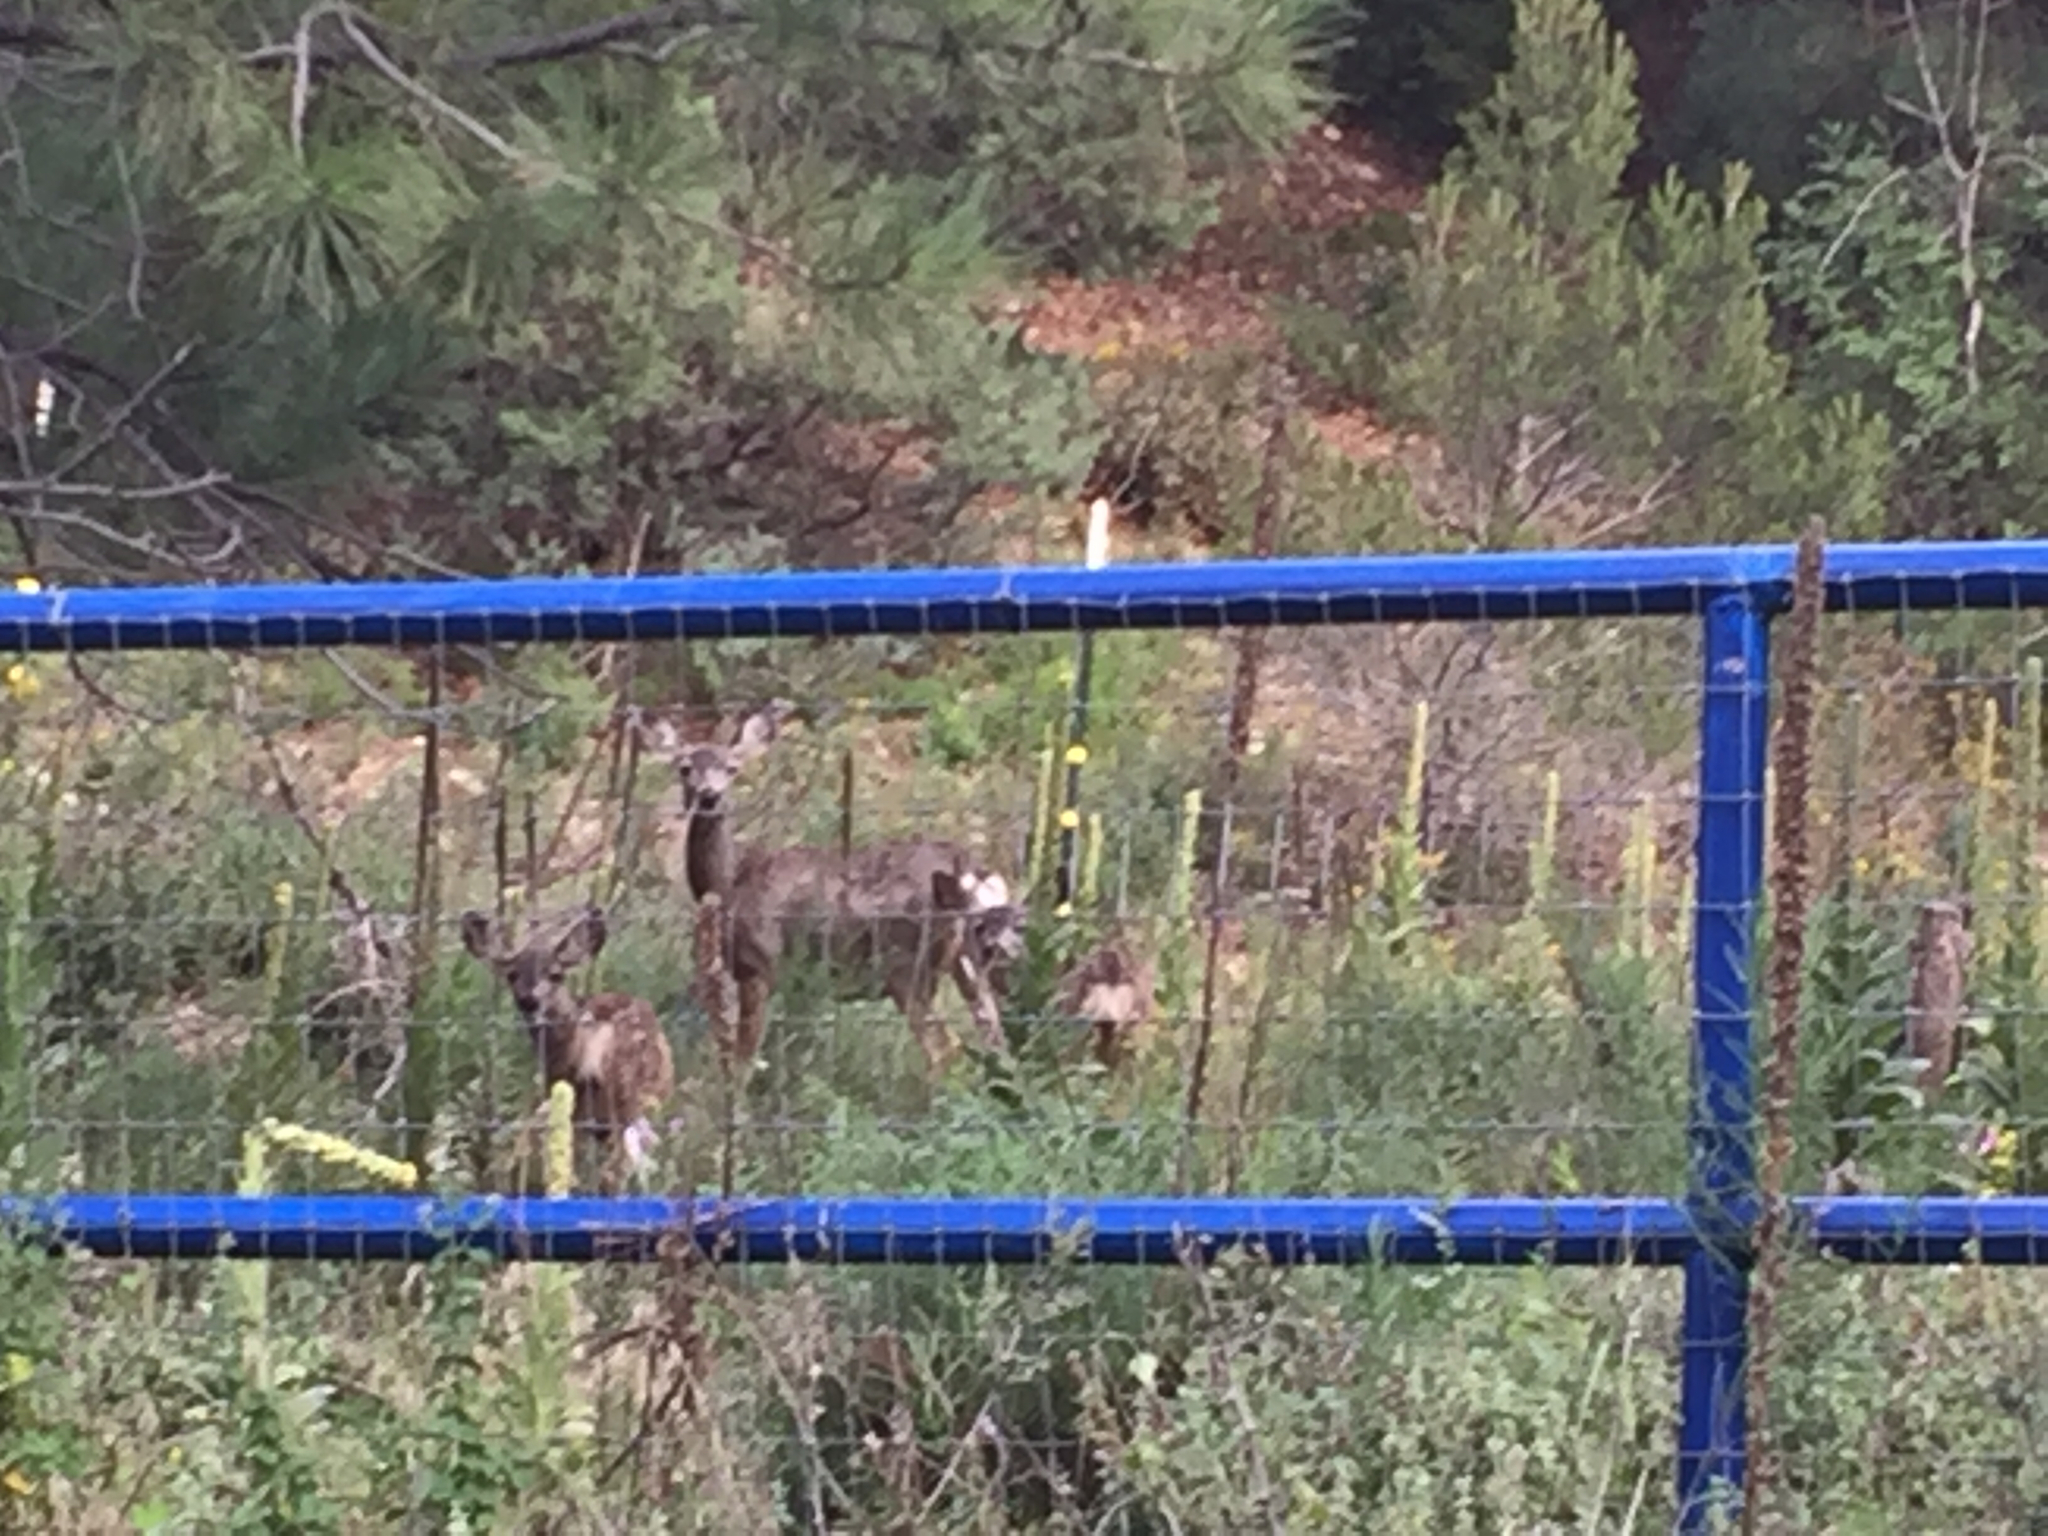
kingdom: Animalia
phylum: Chordata
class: Mammalia
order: Artiodactyla
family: Cervidae
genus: Odocoileus
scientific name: Odocoileus hemionus
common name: Mule deer
